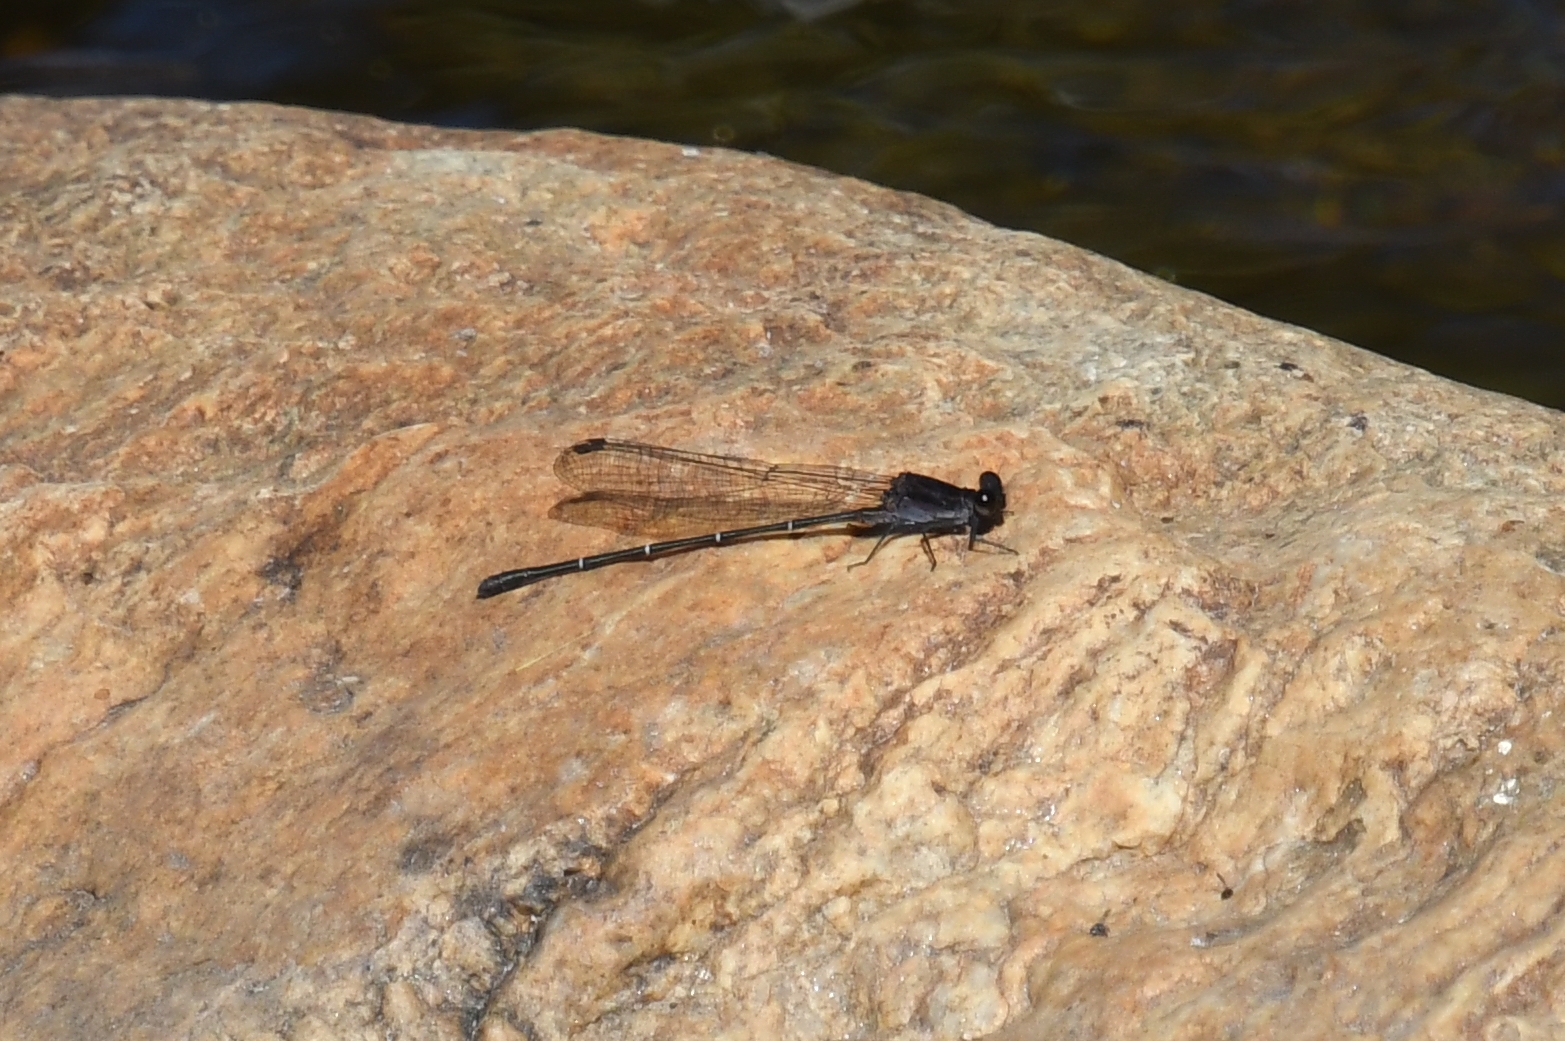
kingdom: Animalia
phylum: Arthropoda
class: Insecta
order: Odonata
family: Coenagrionidae
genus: Argia
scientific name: Argia tezpi
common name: Tezpi dancer
